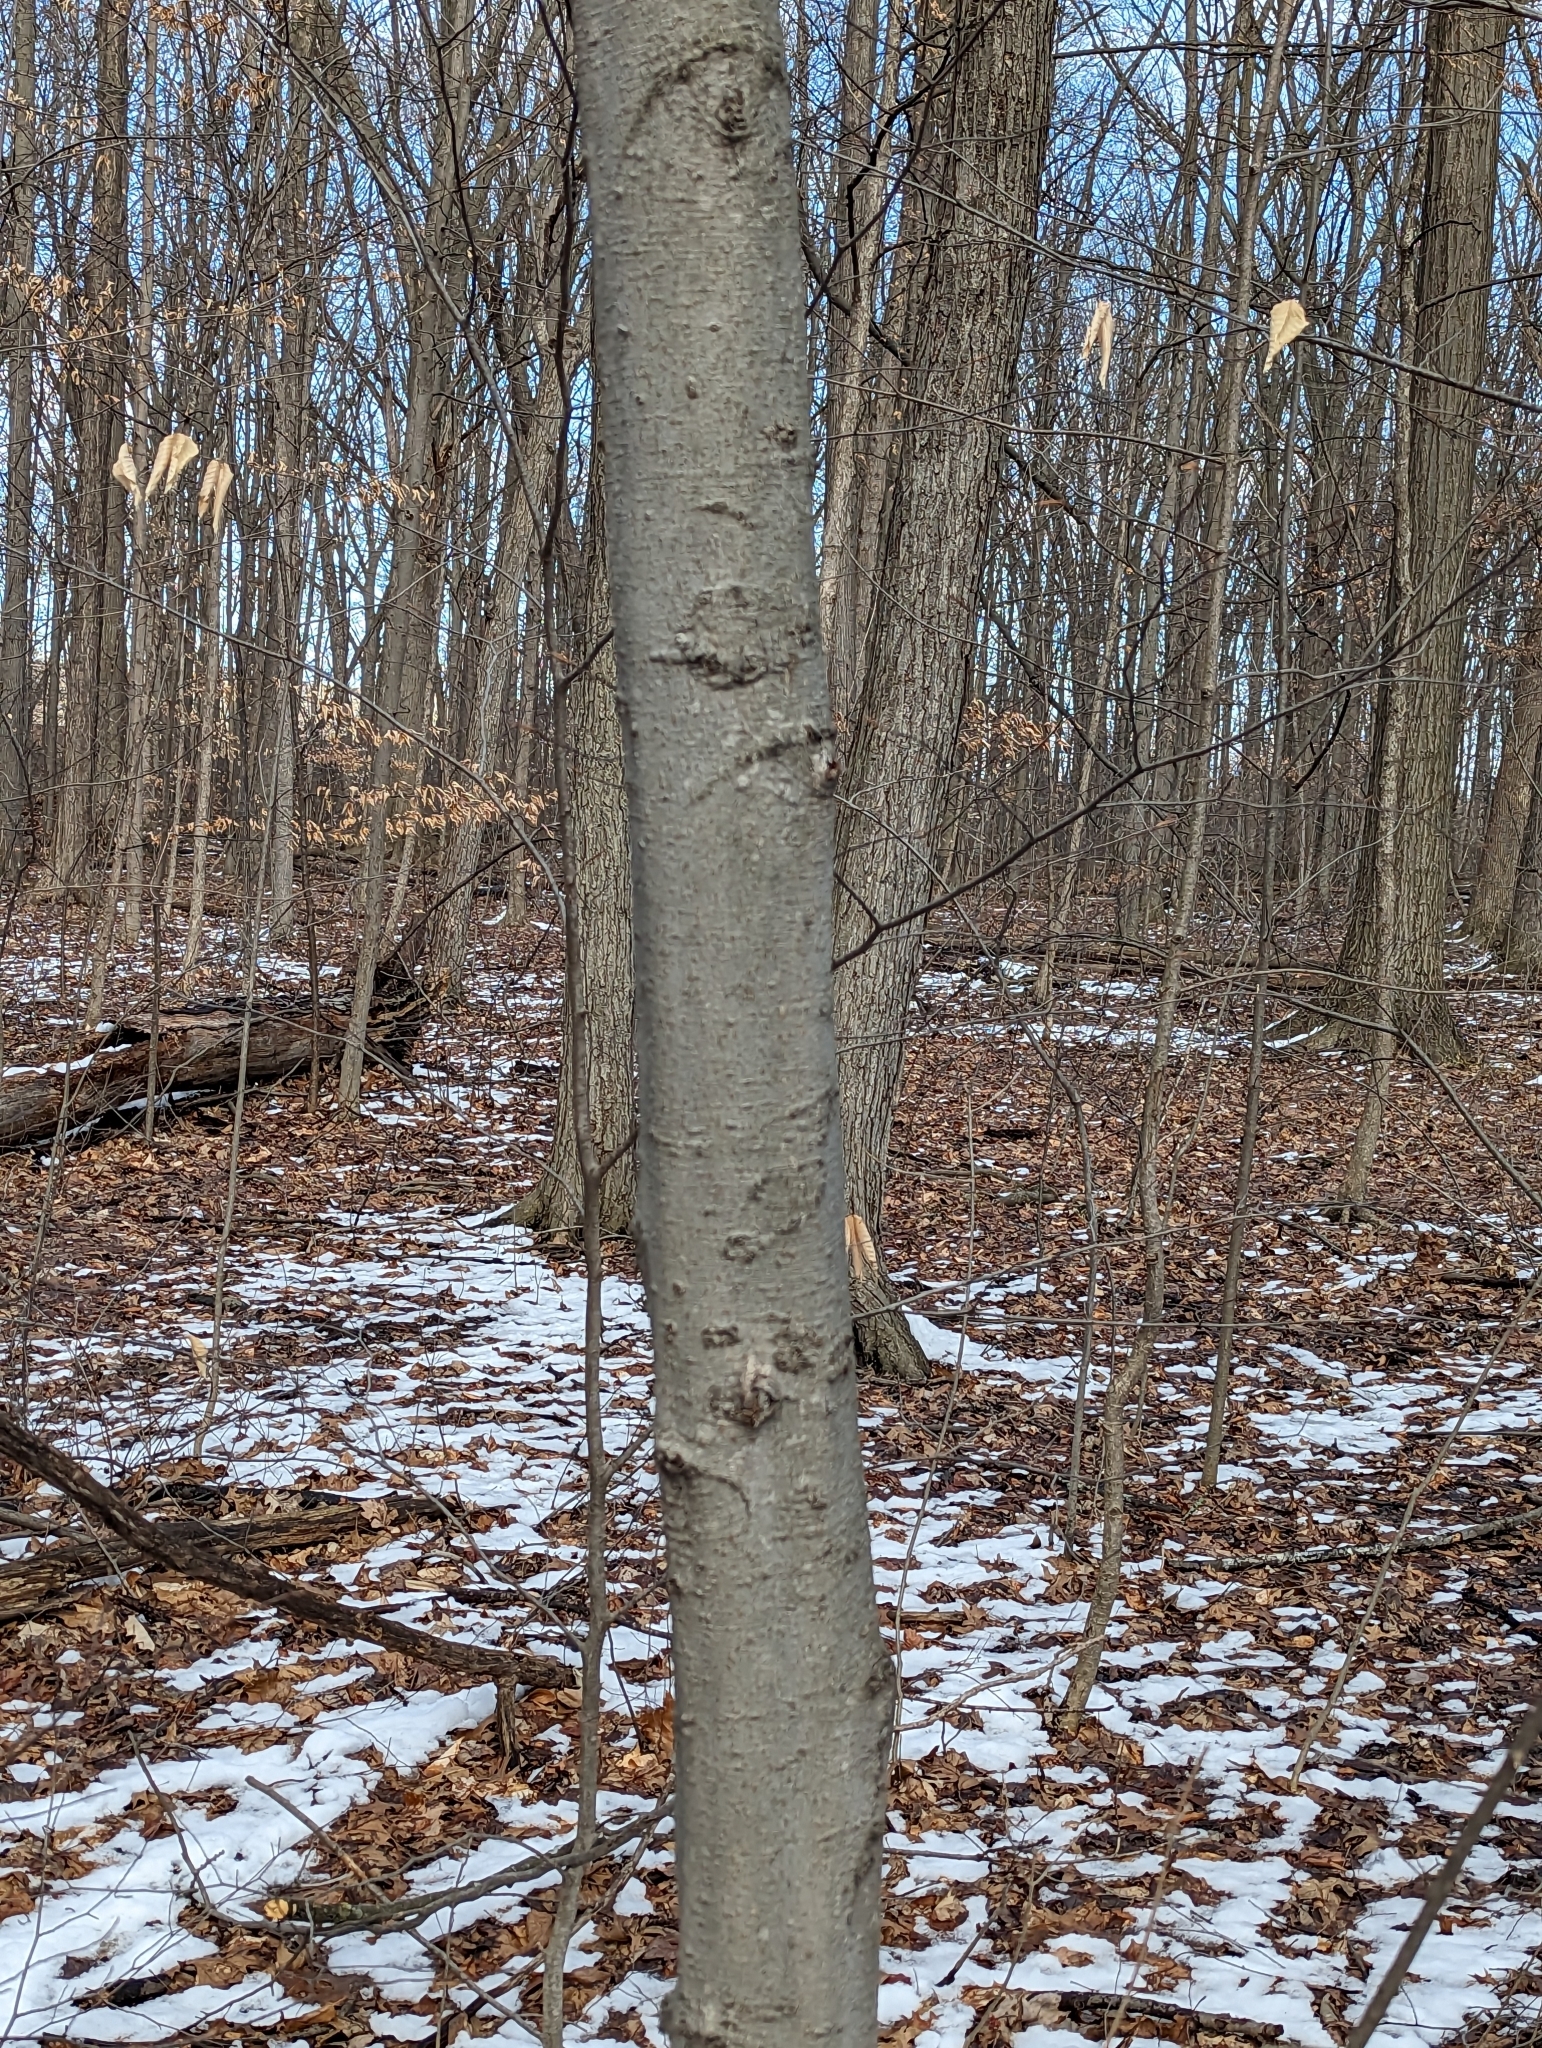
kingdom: Plantae
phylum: Tracheophyta
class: Magnoliopsida
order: Fagales
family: Fagaceae
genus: Fagus
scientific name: Fagus grandifolia
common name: American beech
